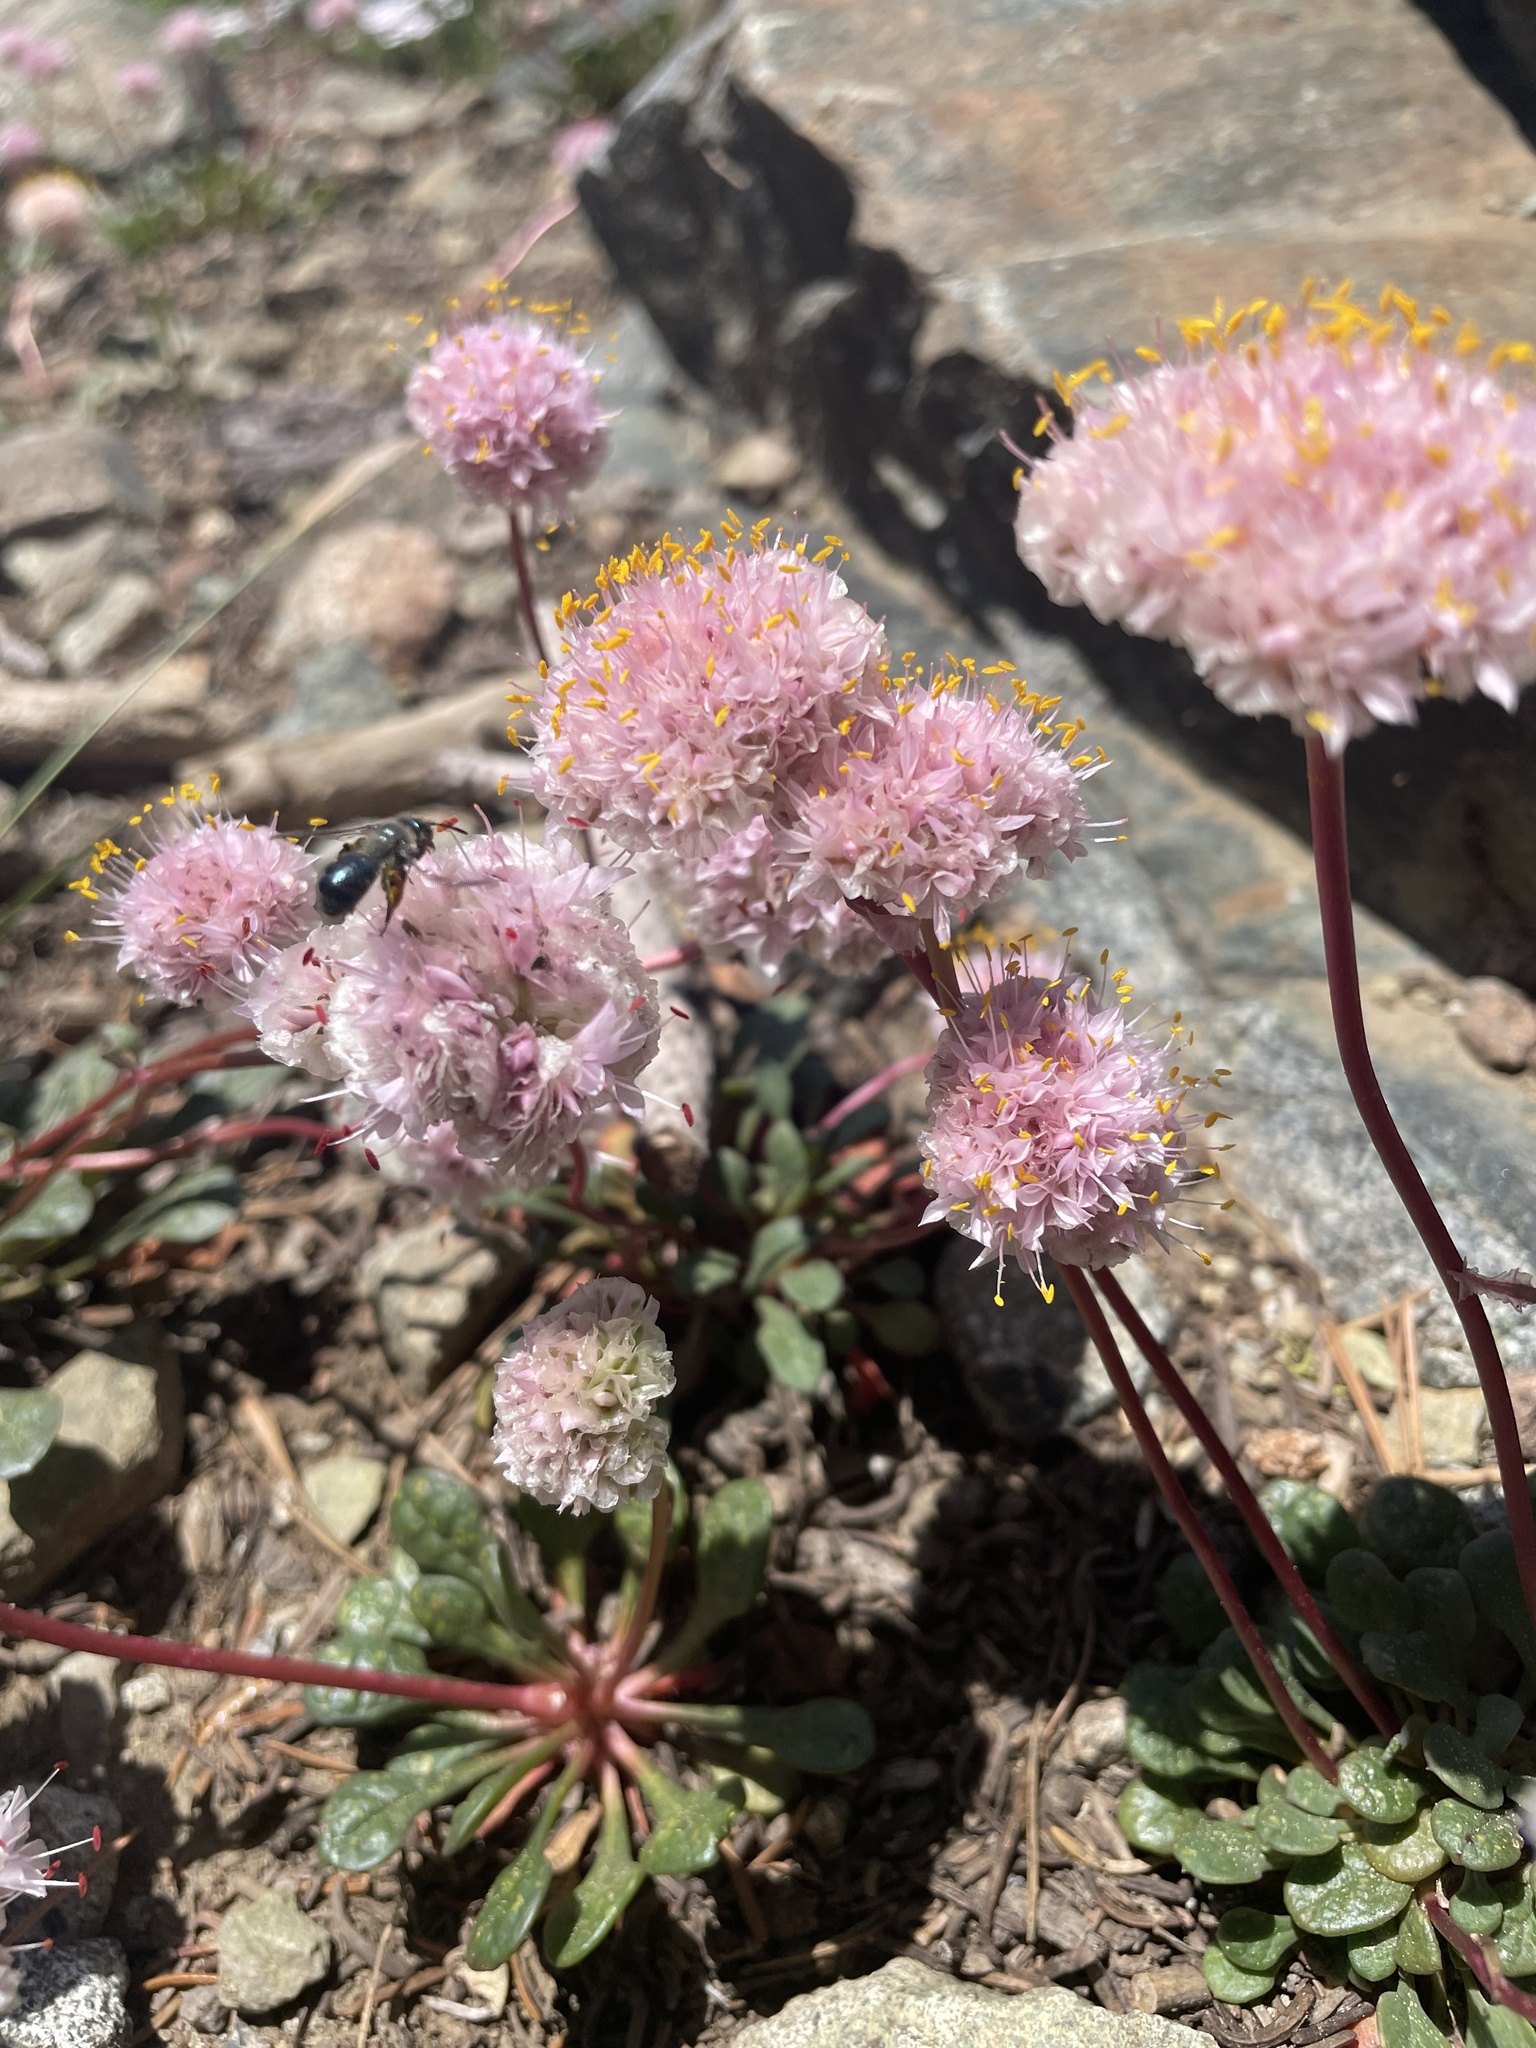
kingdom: Plantae
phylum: Tracheophyta
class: Magnoliopsida
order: Caryophyllales
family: Montiaceae
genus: Calyptridium
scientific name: Calyptridium monospermum
